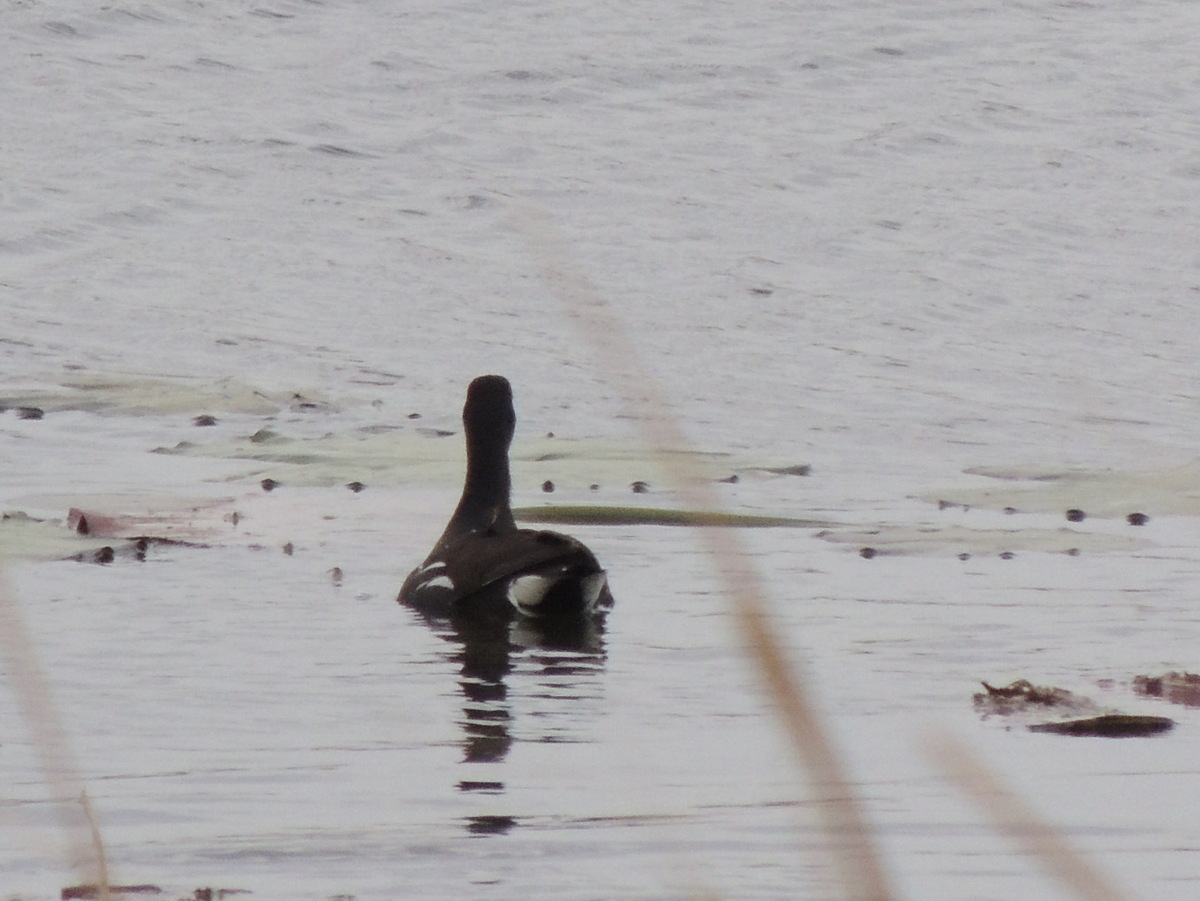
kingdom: Animalia
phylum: Chordata
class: Aves
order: Gruiformes
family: Rallidae
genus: Gallinula
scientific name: Gallinula chloropus
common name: Common moorhen
